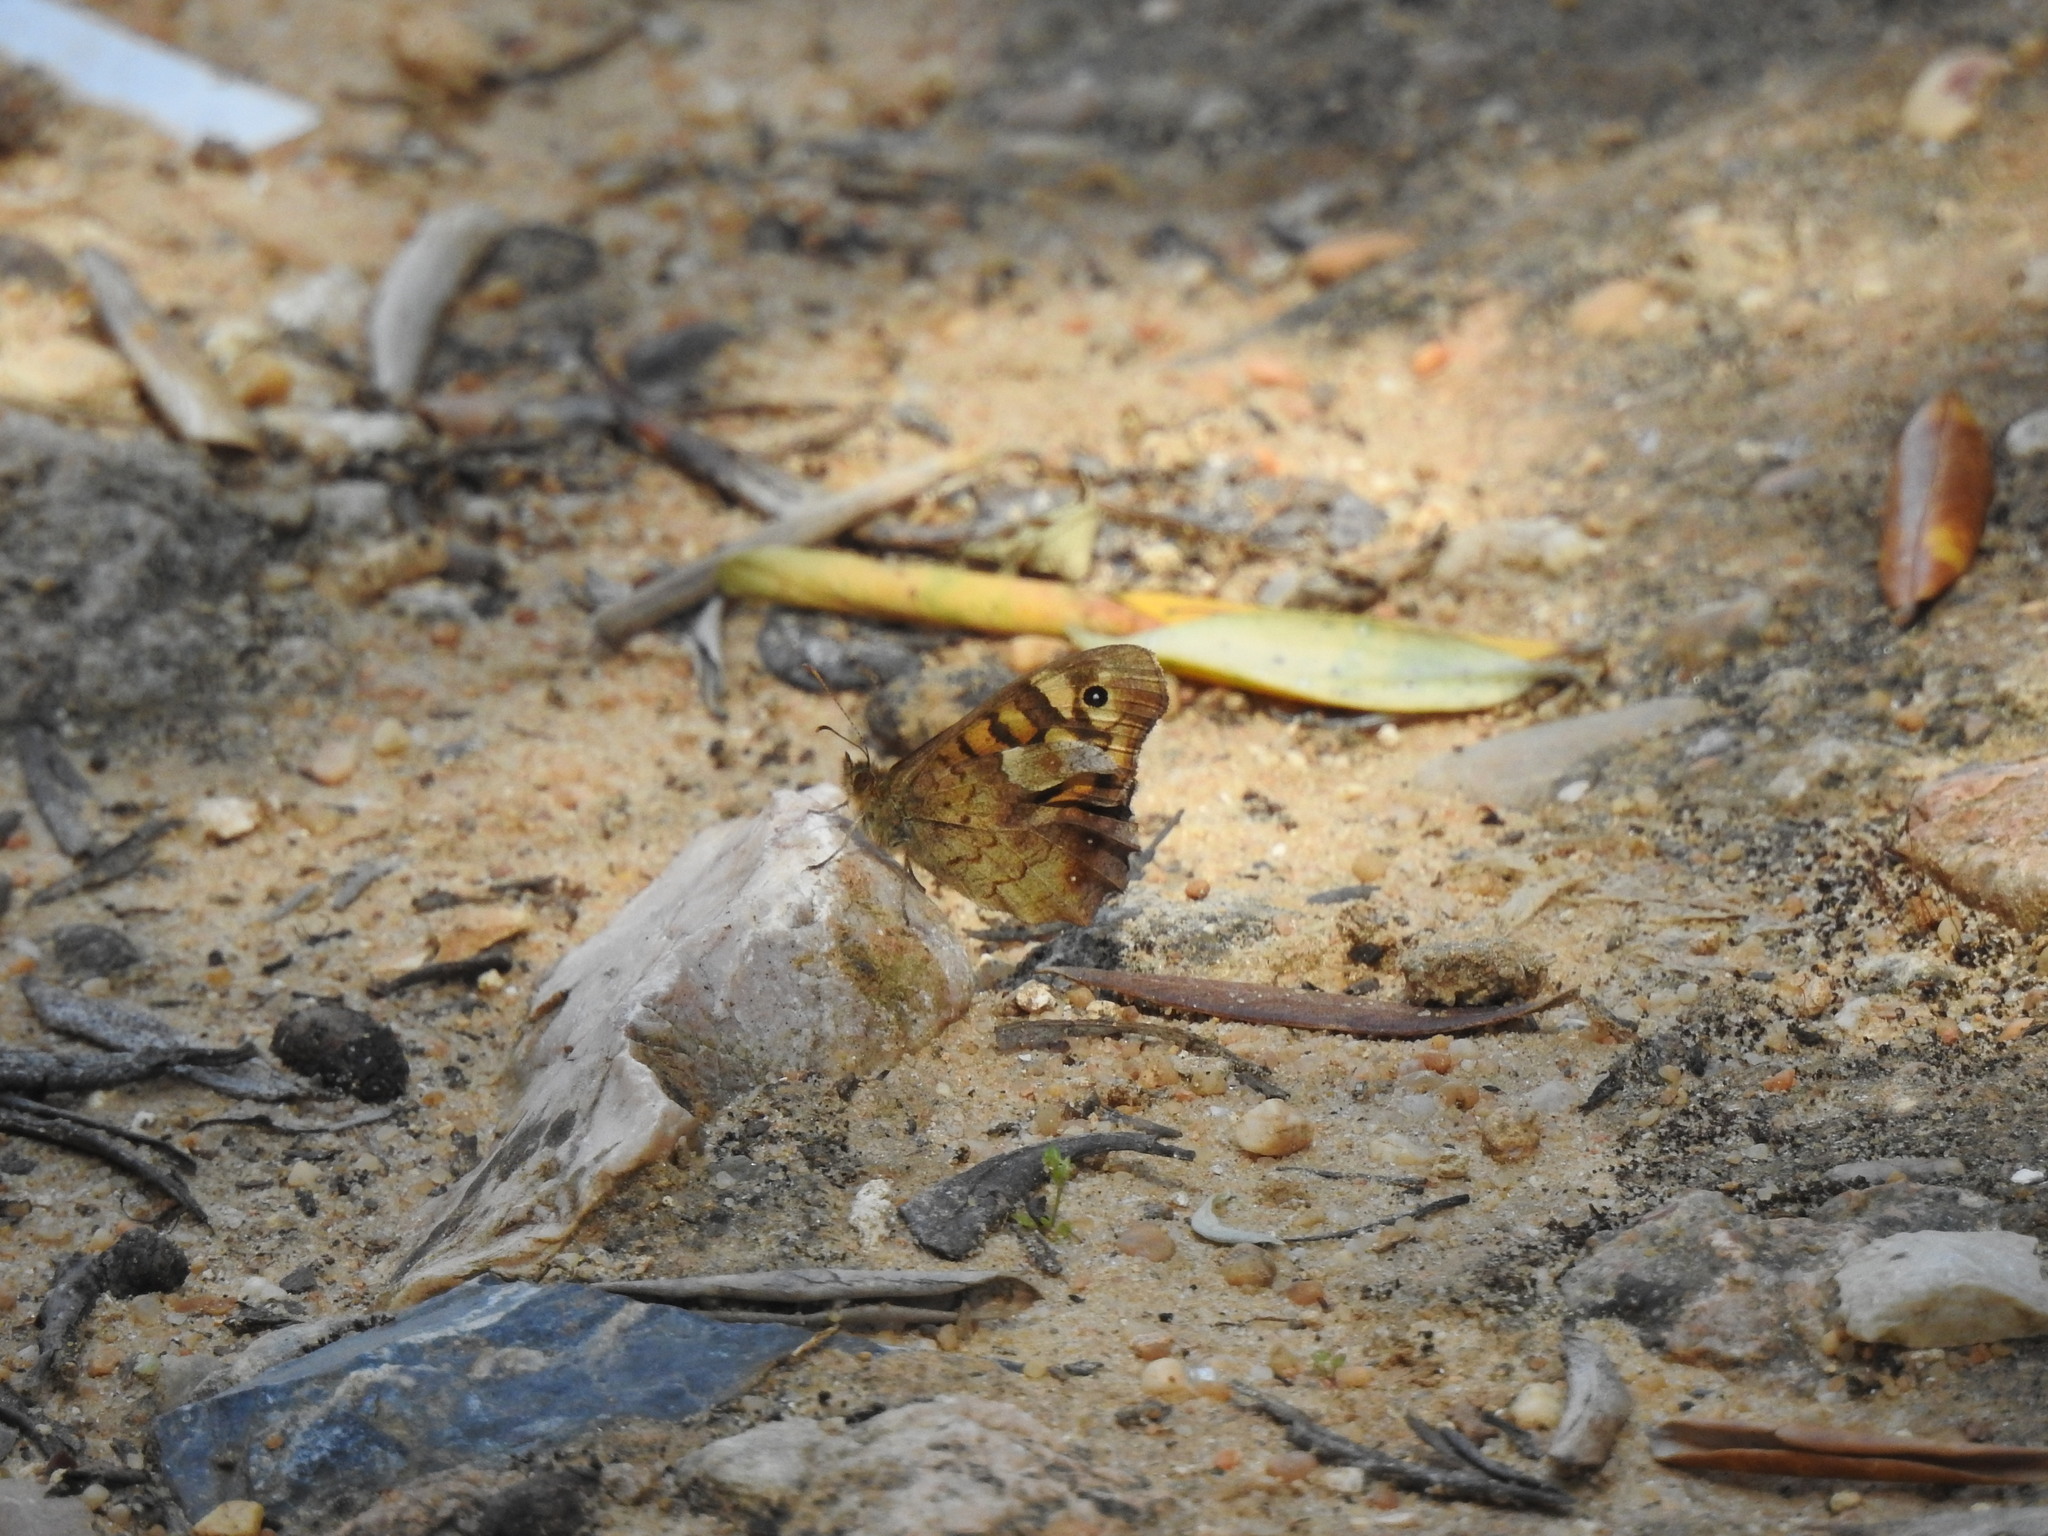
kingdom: Animalia
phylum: Arthropoda
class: Insecta
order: Lepidoptera
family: Nymphalidae
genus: Pararge
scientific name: Pararge aegeria
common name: Speckled wood
